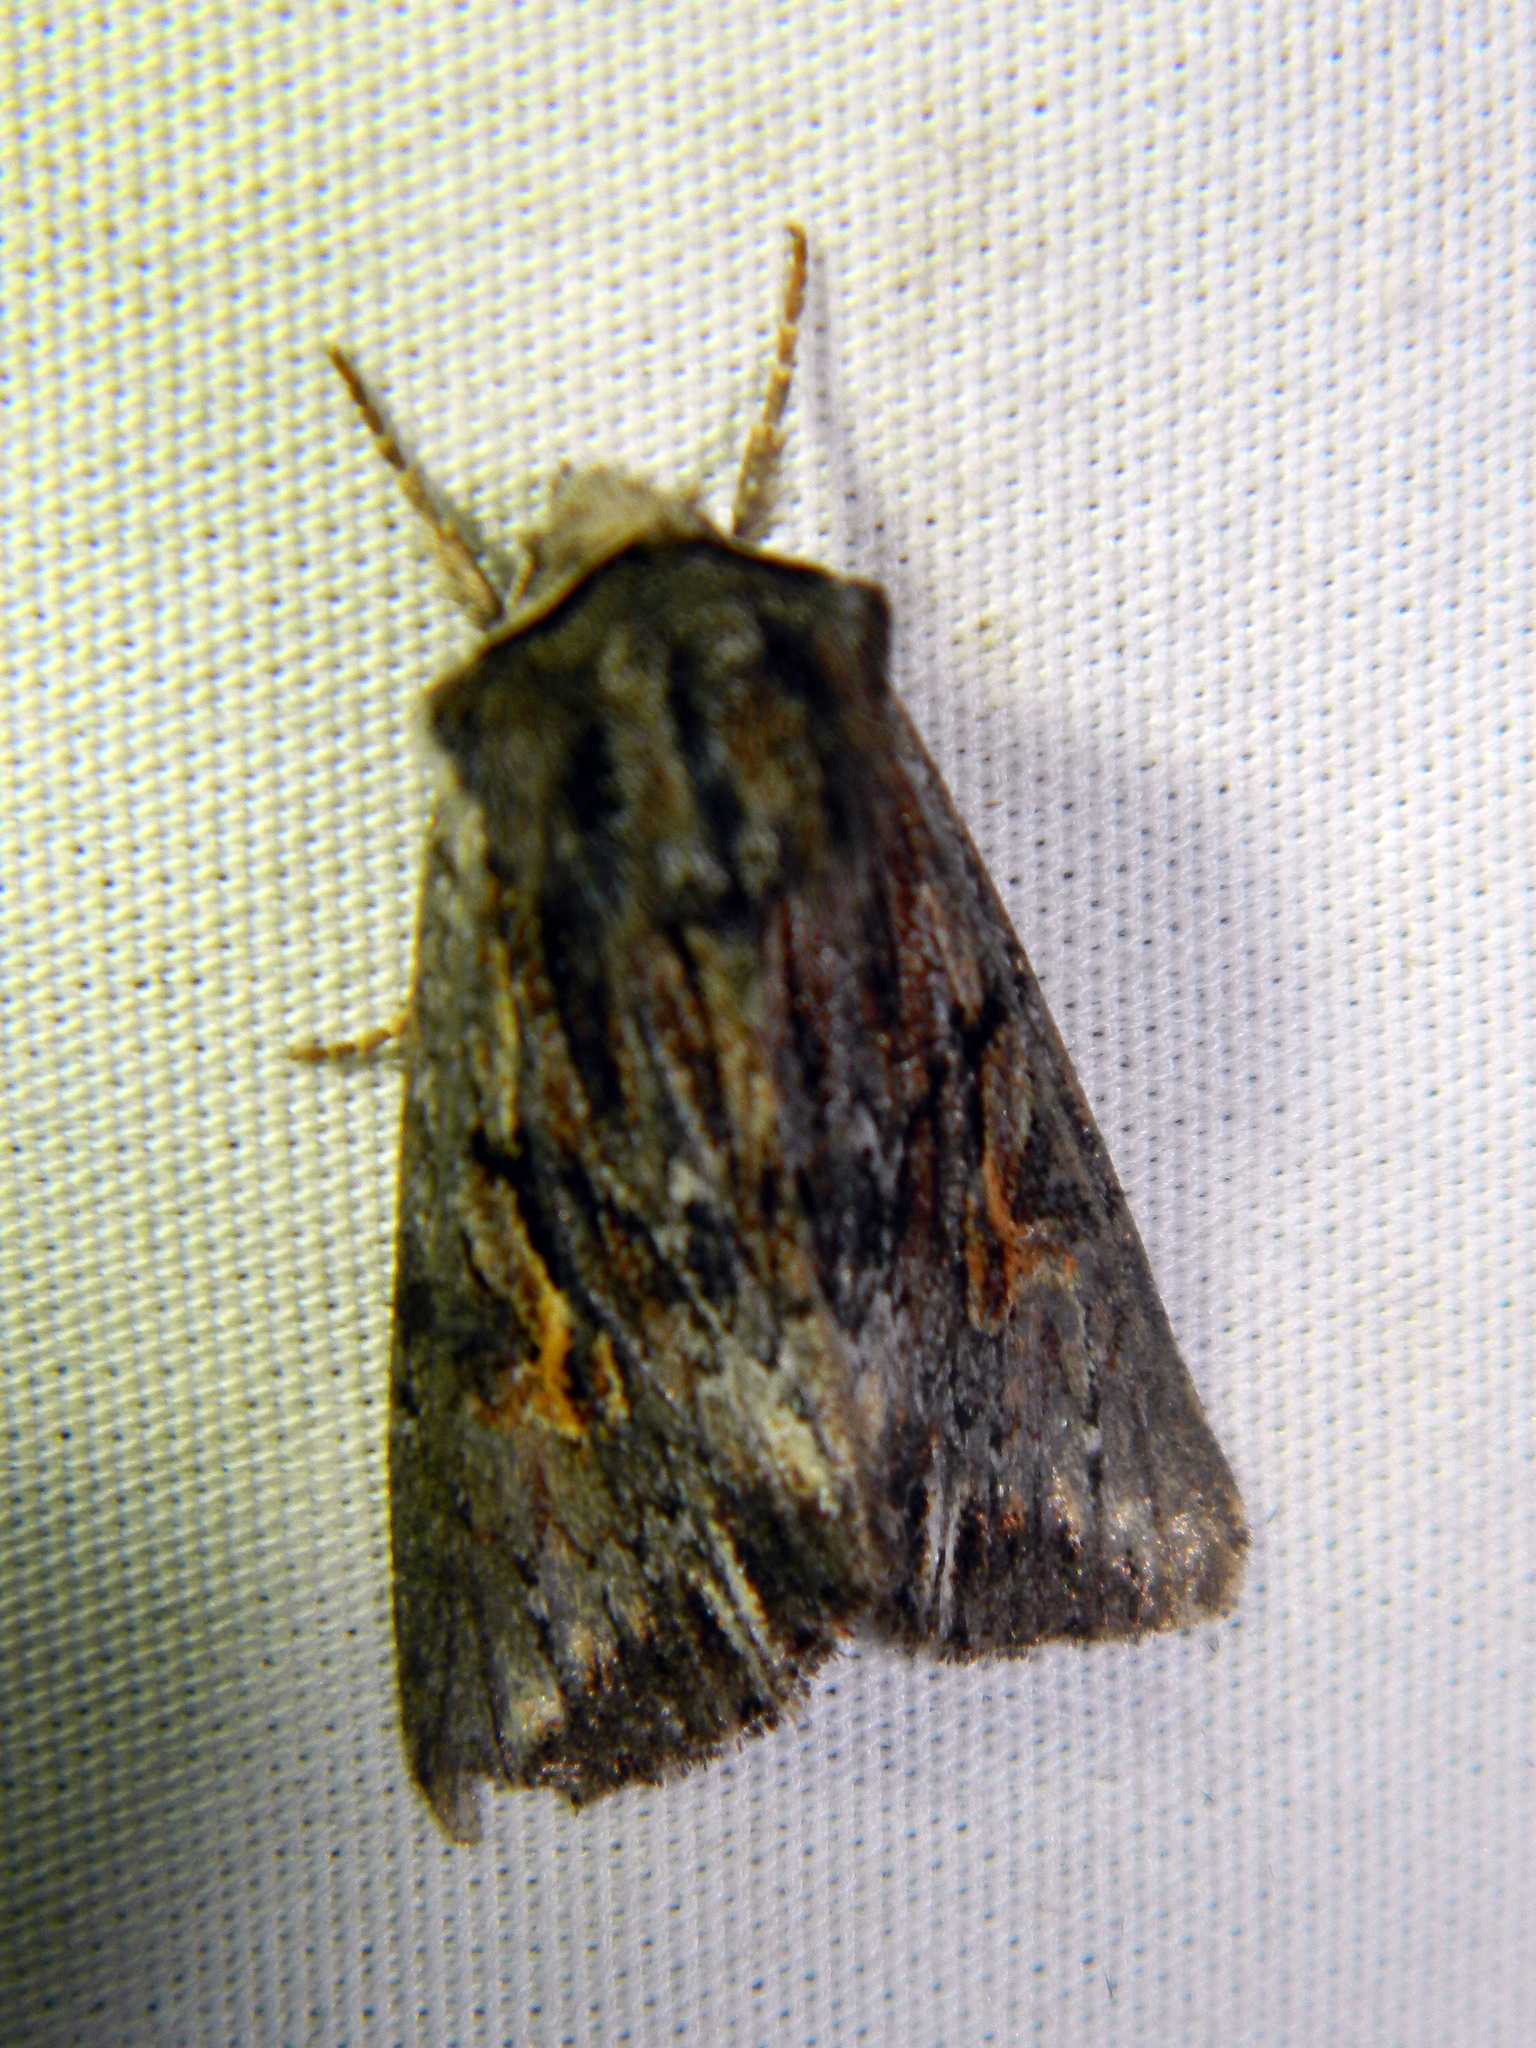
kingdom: Animalia
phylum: Arthropoda
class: Insecta
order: Lepidoptera
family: Noctuidae
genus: Achatia
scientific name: Achatia evicta
